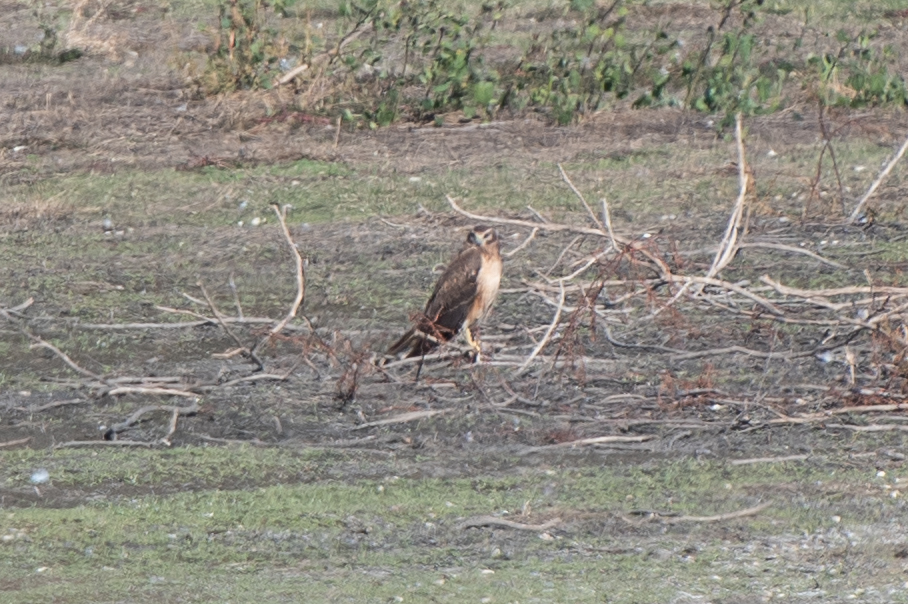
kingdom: Animalia
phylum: Chordata
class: Aves
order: Accipitriformes
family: Accipitridae
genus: Circus
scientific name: Circus cyaneus
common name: Hen harrier
